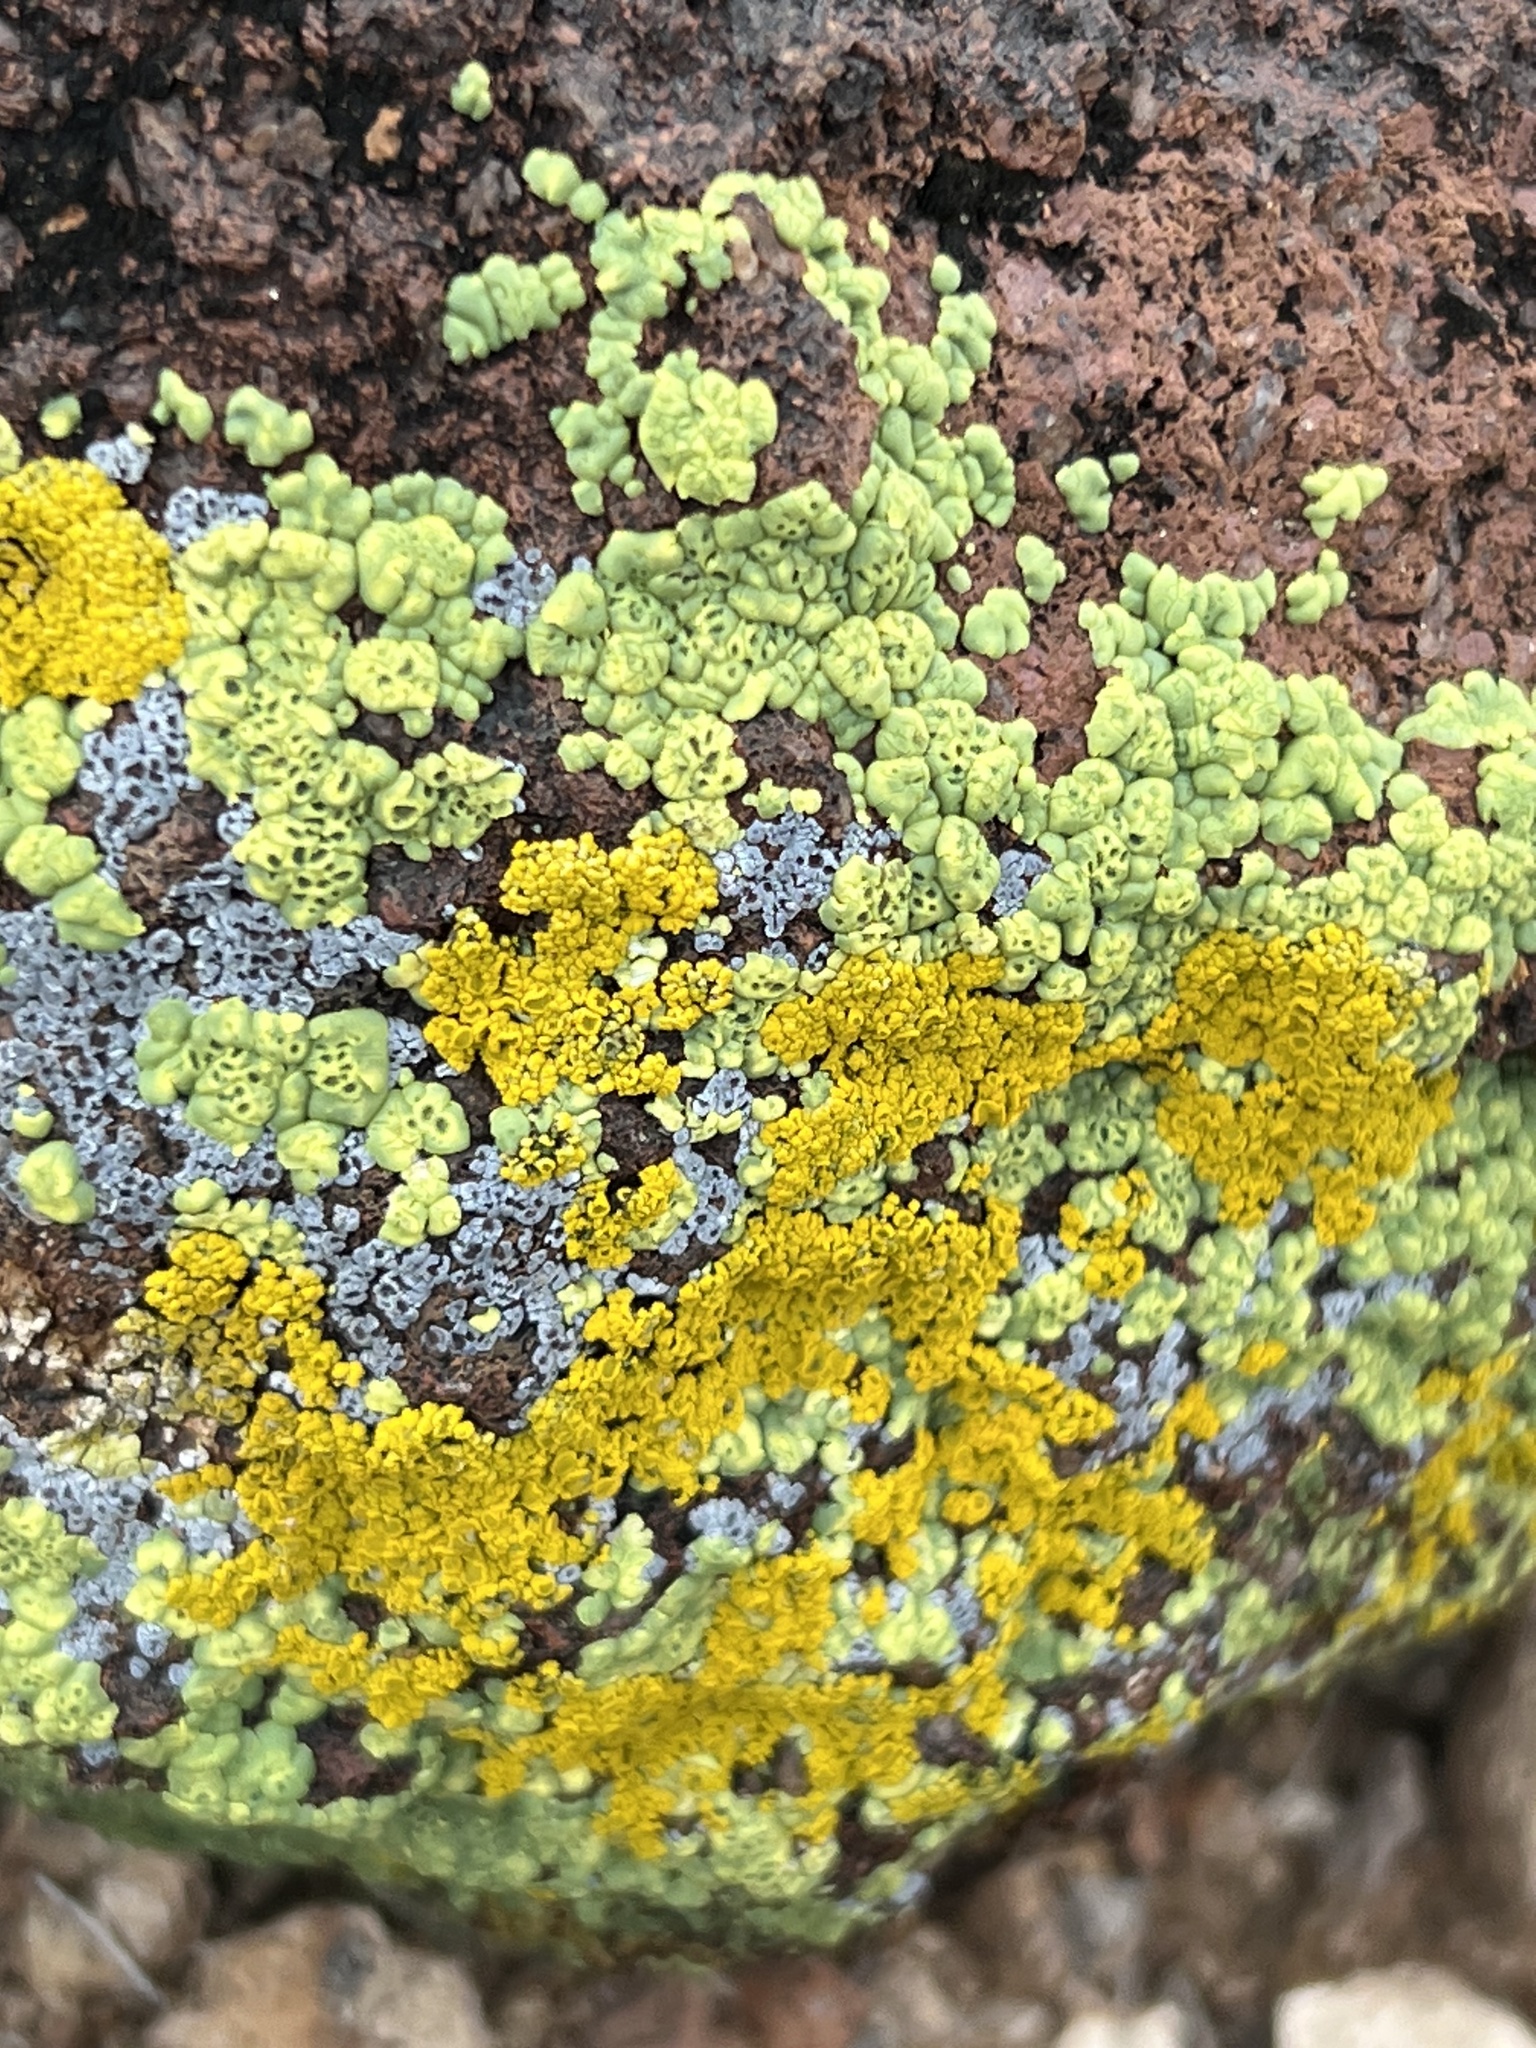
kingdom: Fungi
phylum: Ascomycota
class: Lecanoromycetes
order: Acarosporales
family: Acarosporaceae
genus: Acarospora
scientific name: Acarospora socialis
